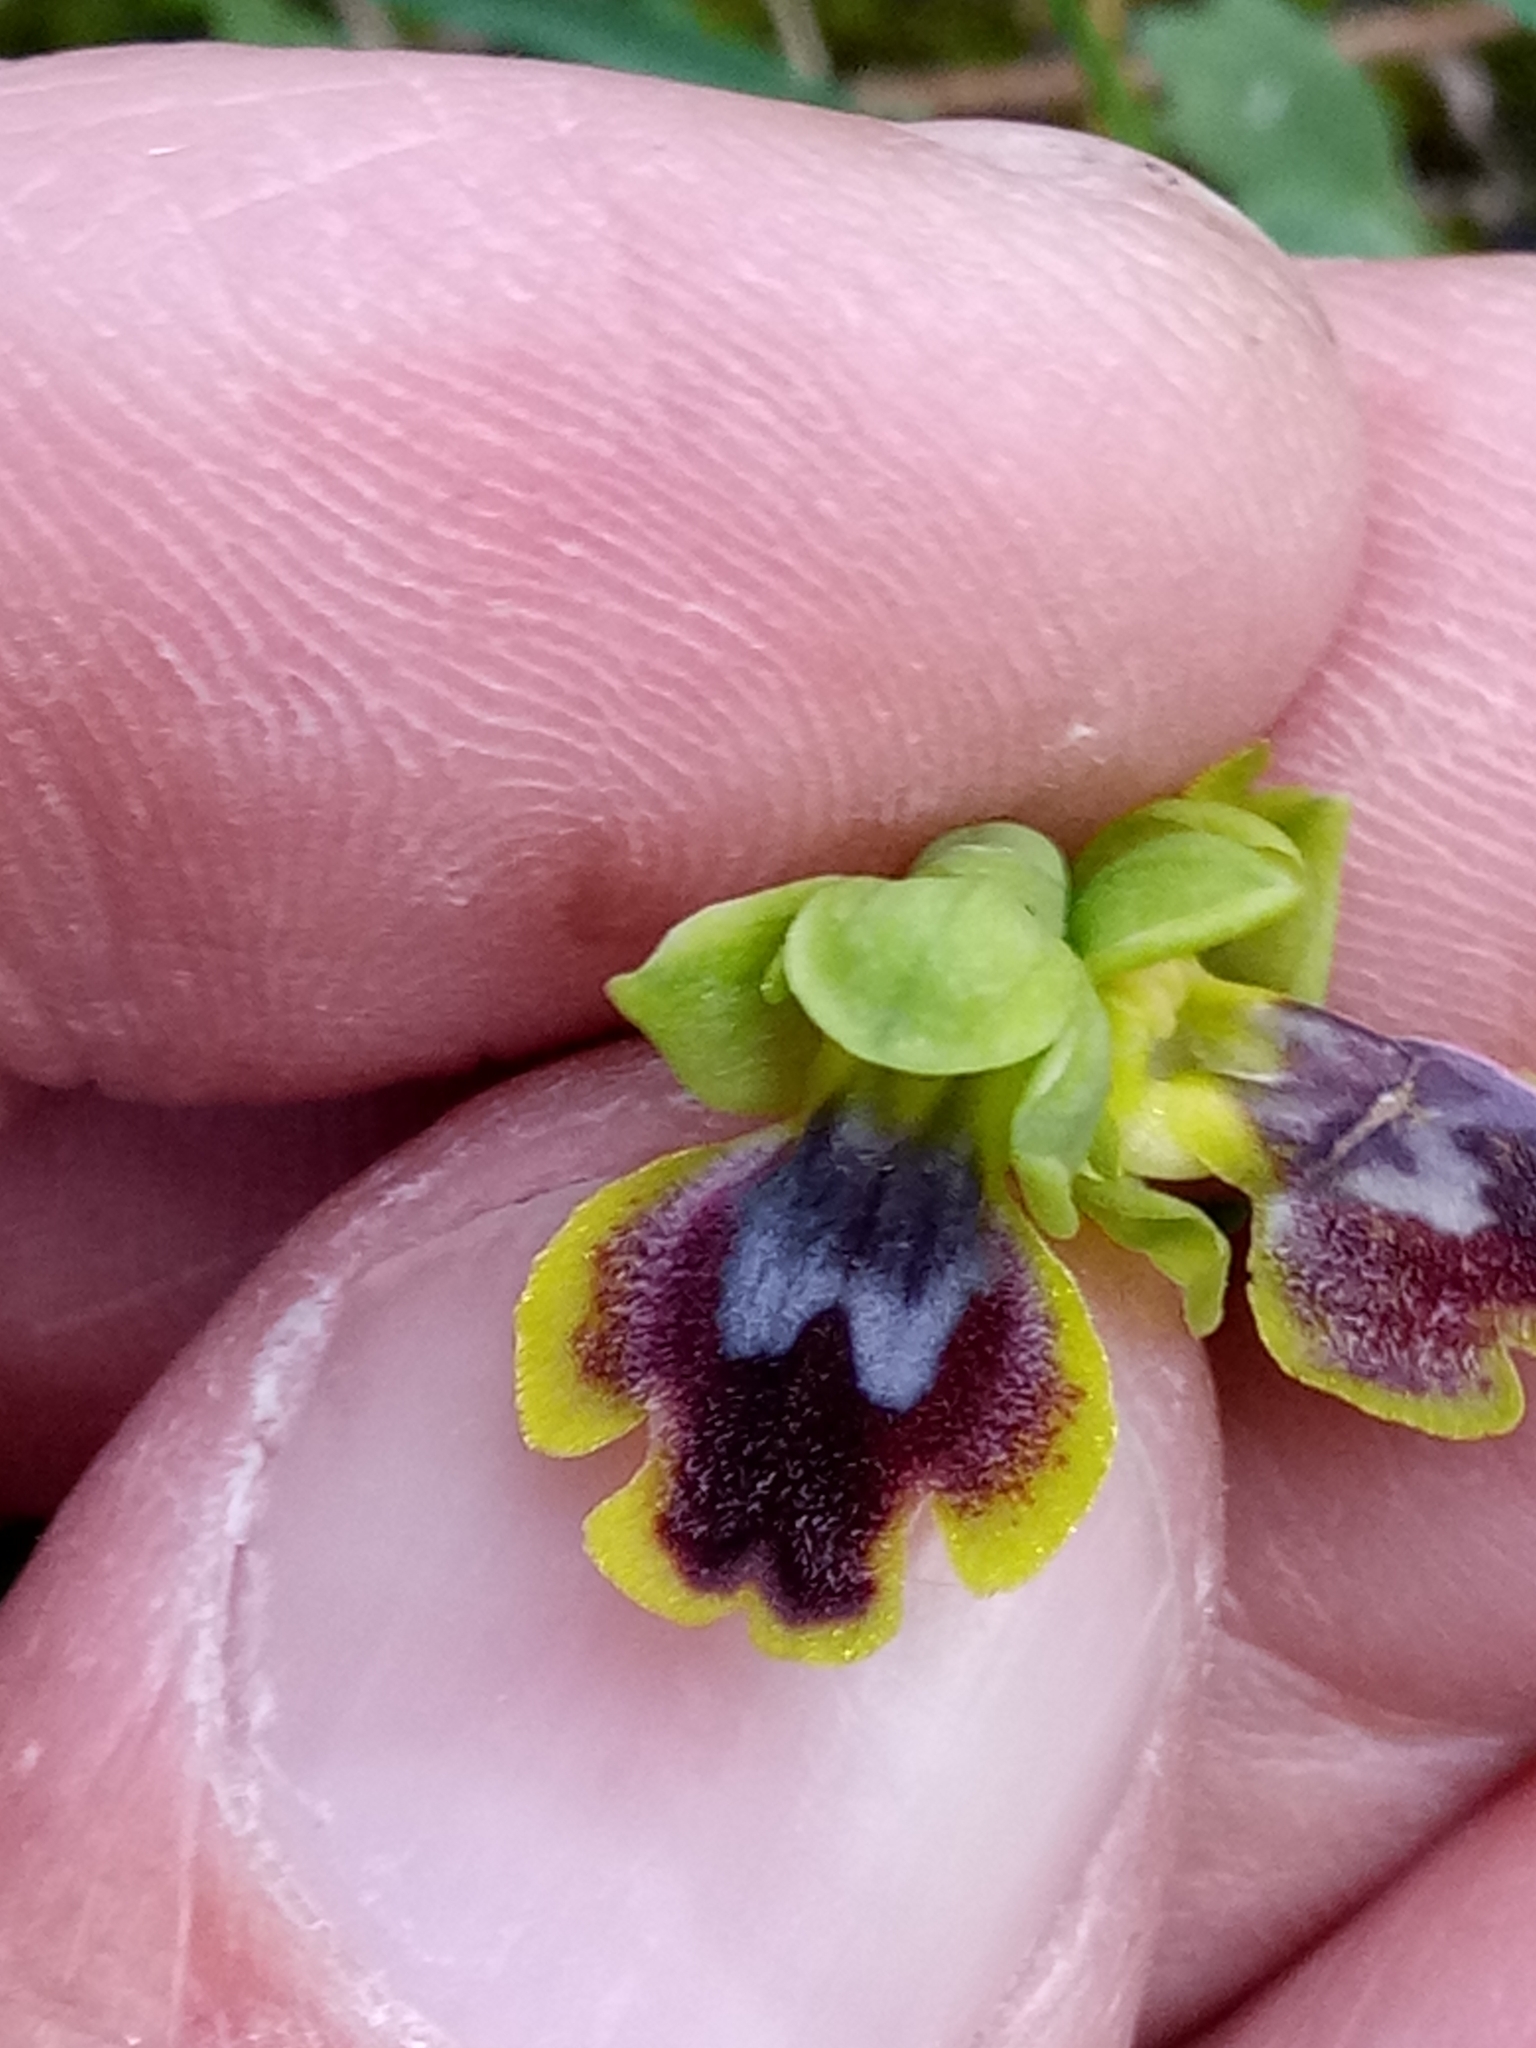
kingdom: Plantae
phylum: Tracheophyta
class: Liliopsida
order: Asparagales
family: Orchidaceae
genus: Ophrys
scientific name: Ophrys battandieri
